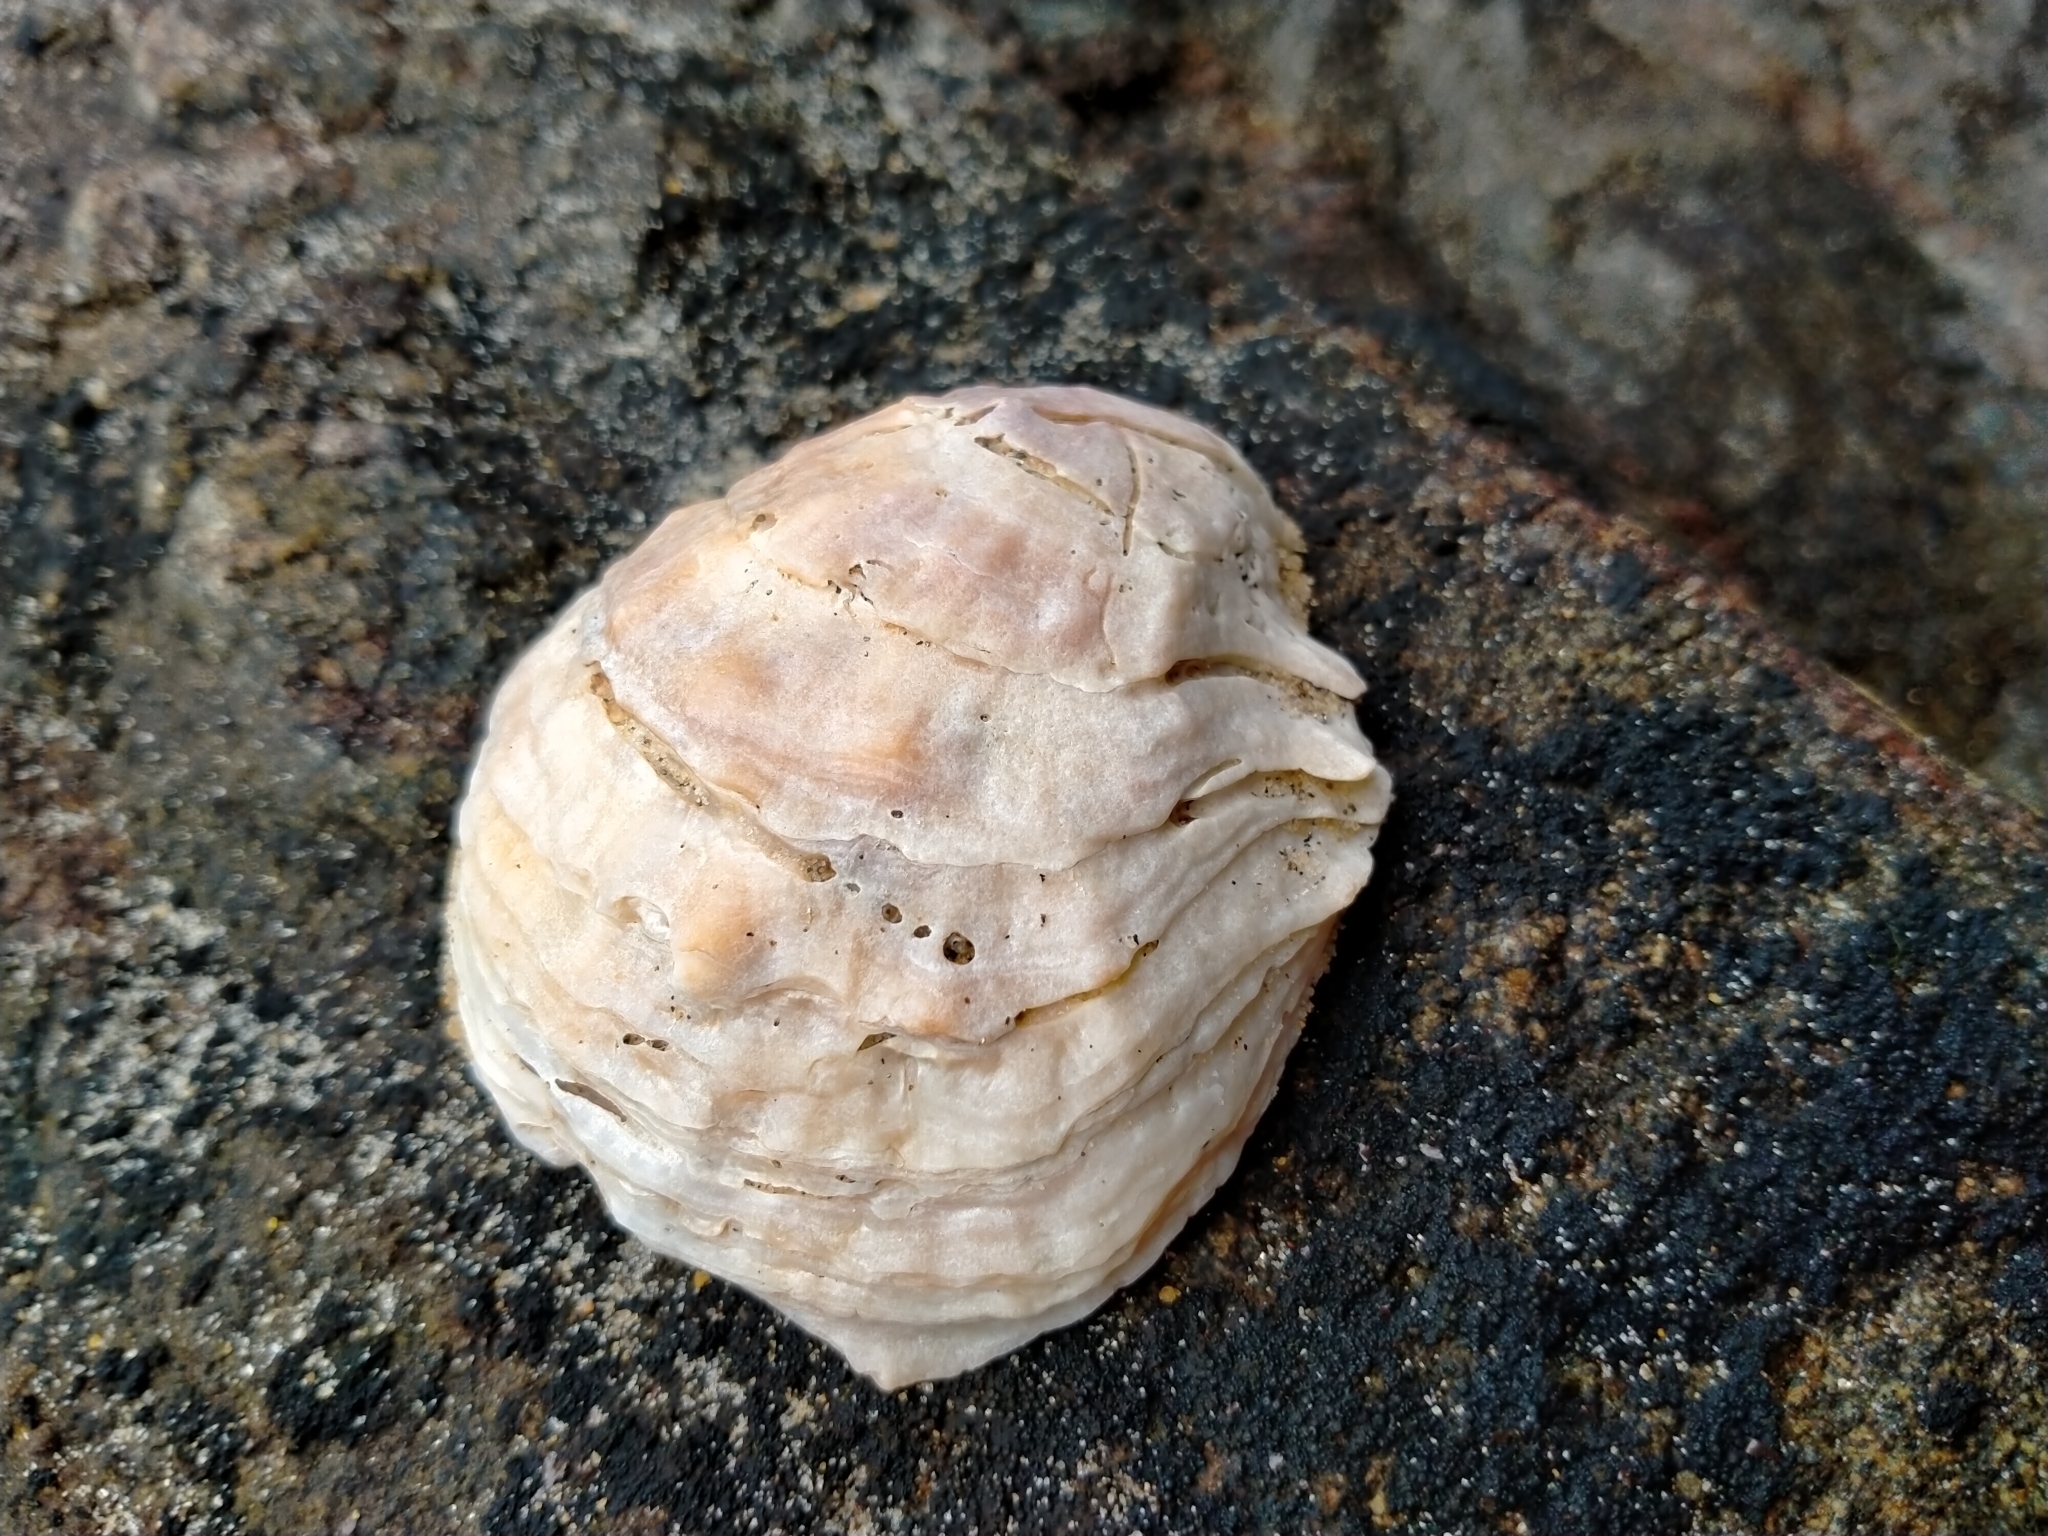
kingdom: Animalia
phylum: Mollusca
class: Bivalvia
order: Ostreida
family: Ostreidae
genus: Ostrea
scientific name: Ostrea chilensis
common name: Chilean oyster
